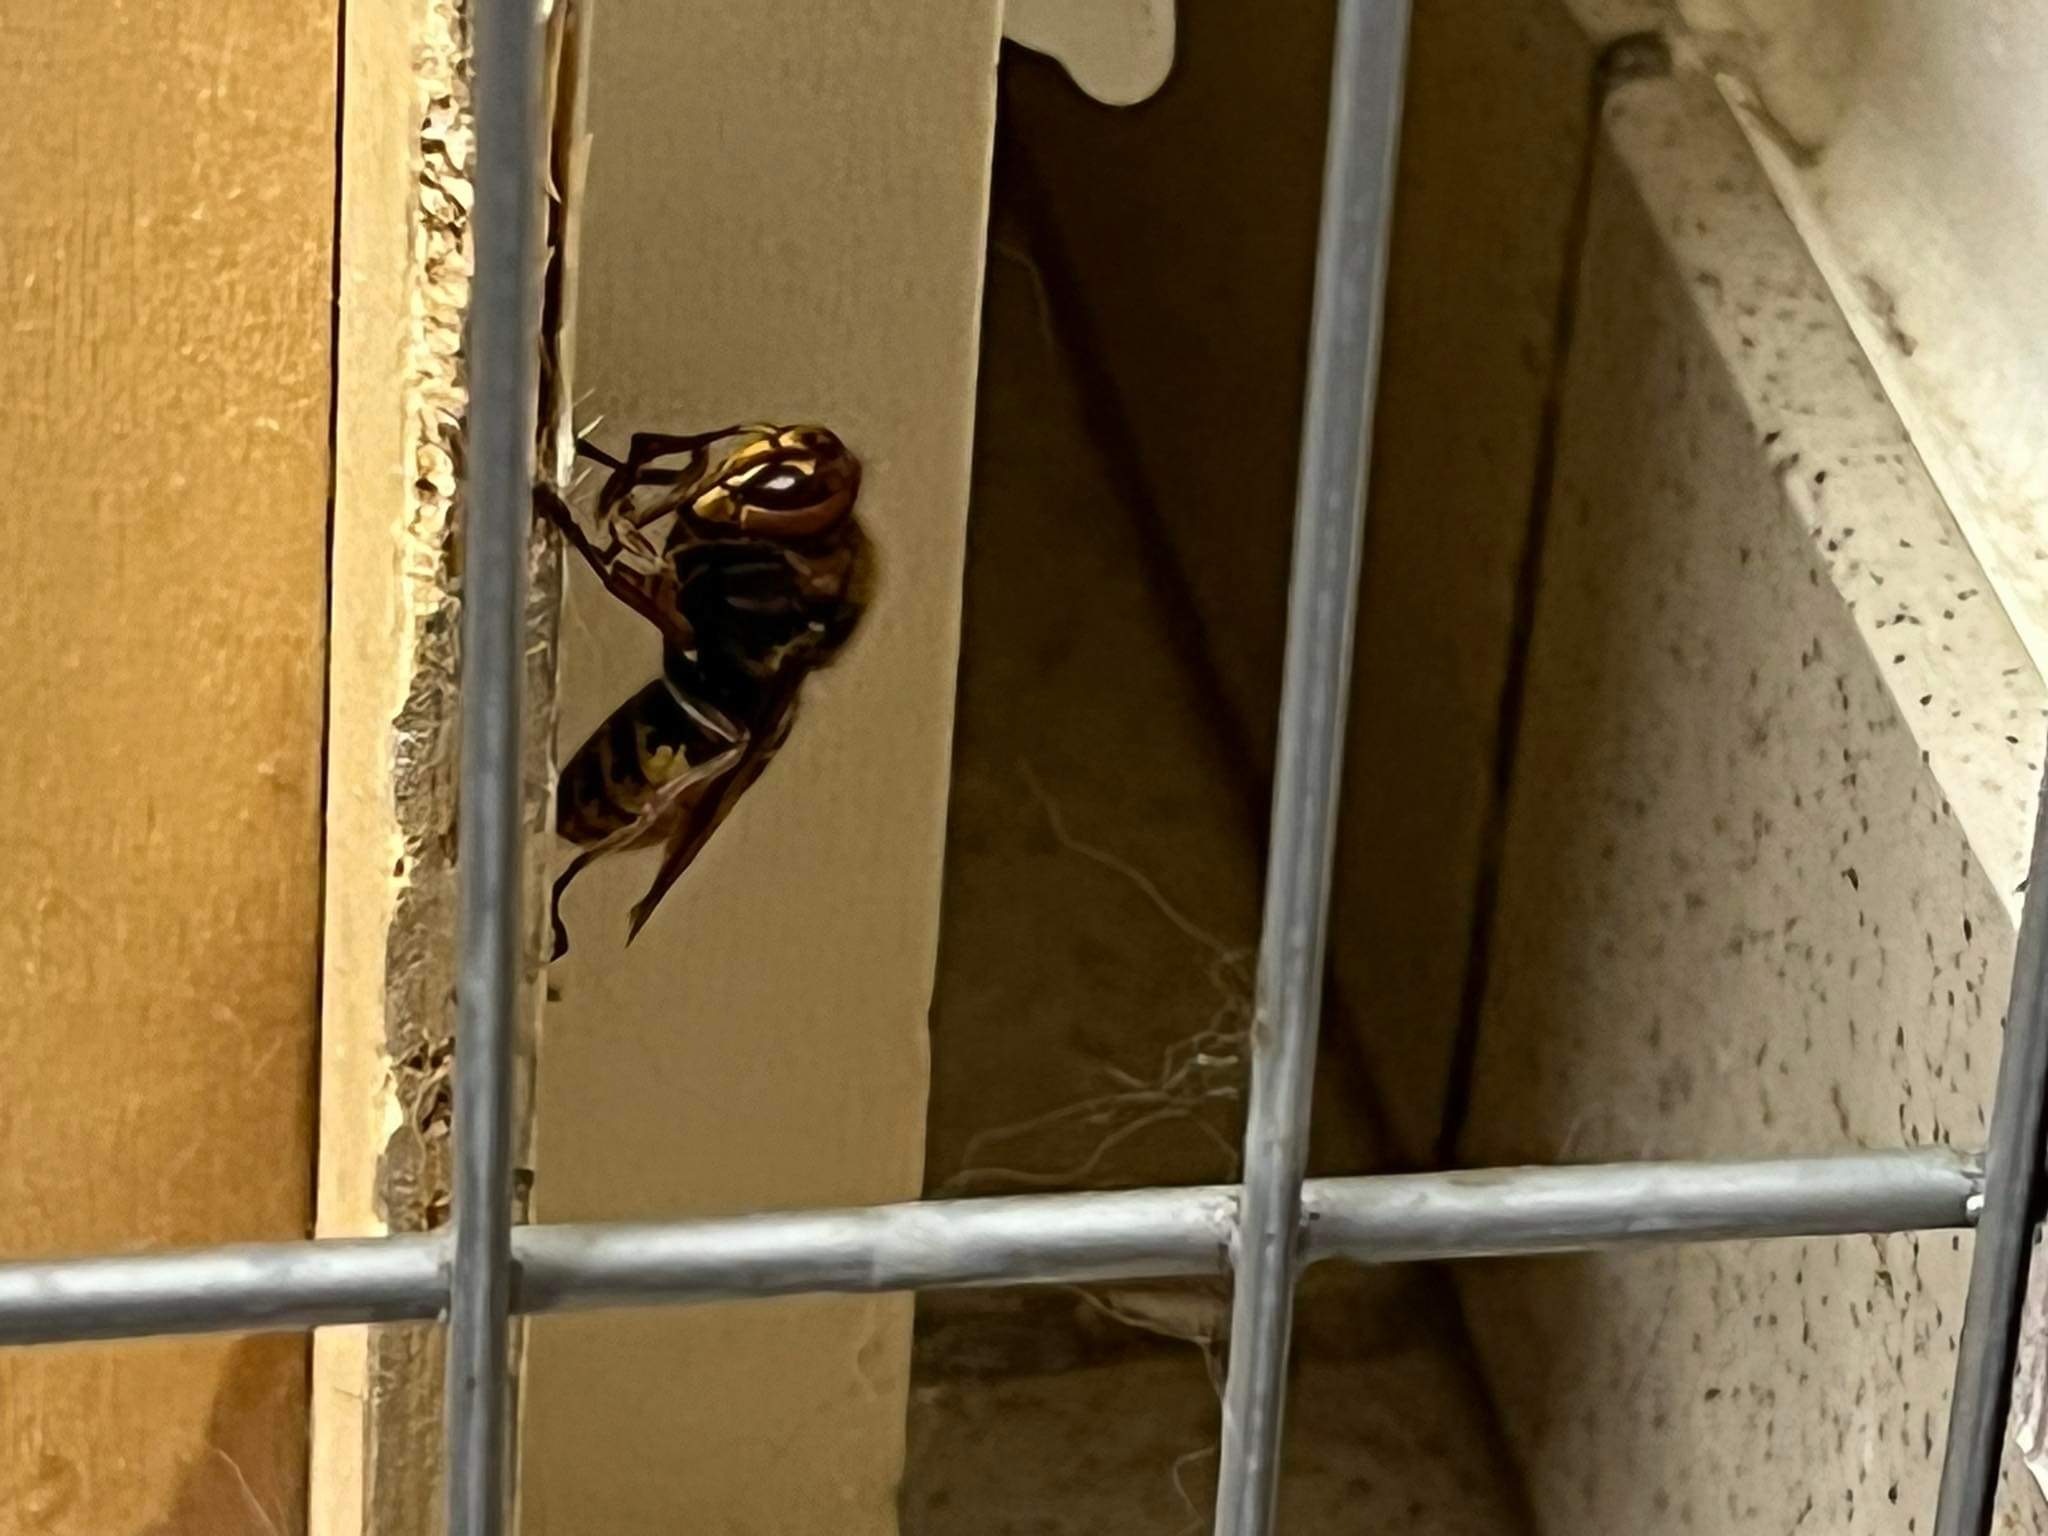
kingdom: Animalia
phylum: Arthropoda
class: Insecta
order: Hymenoptera
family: Vespidae
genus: Vespa
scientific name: Vespa crabro
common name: Hornet
